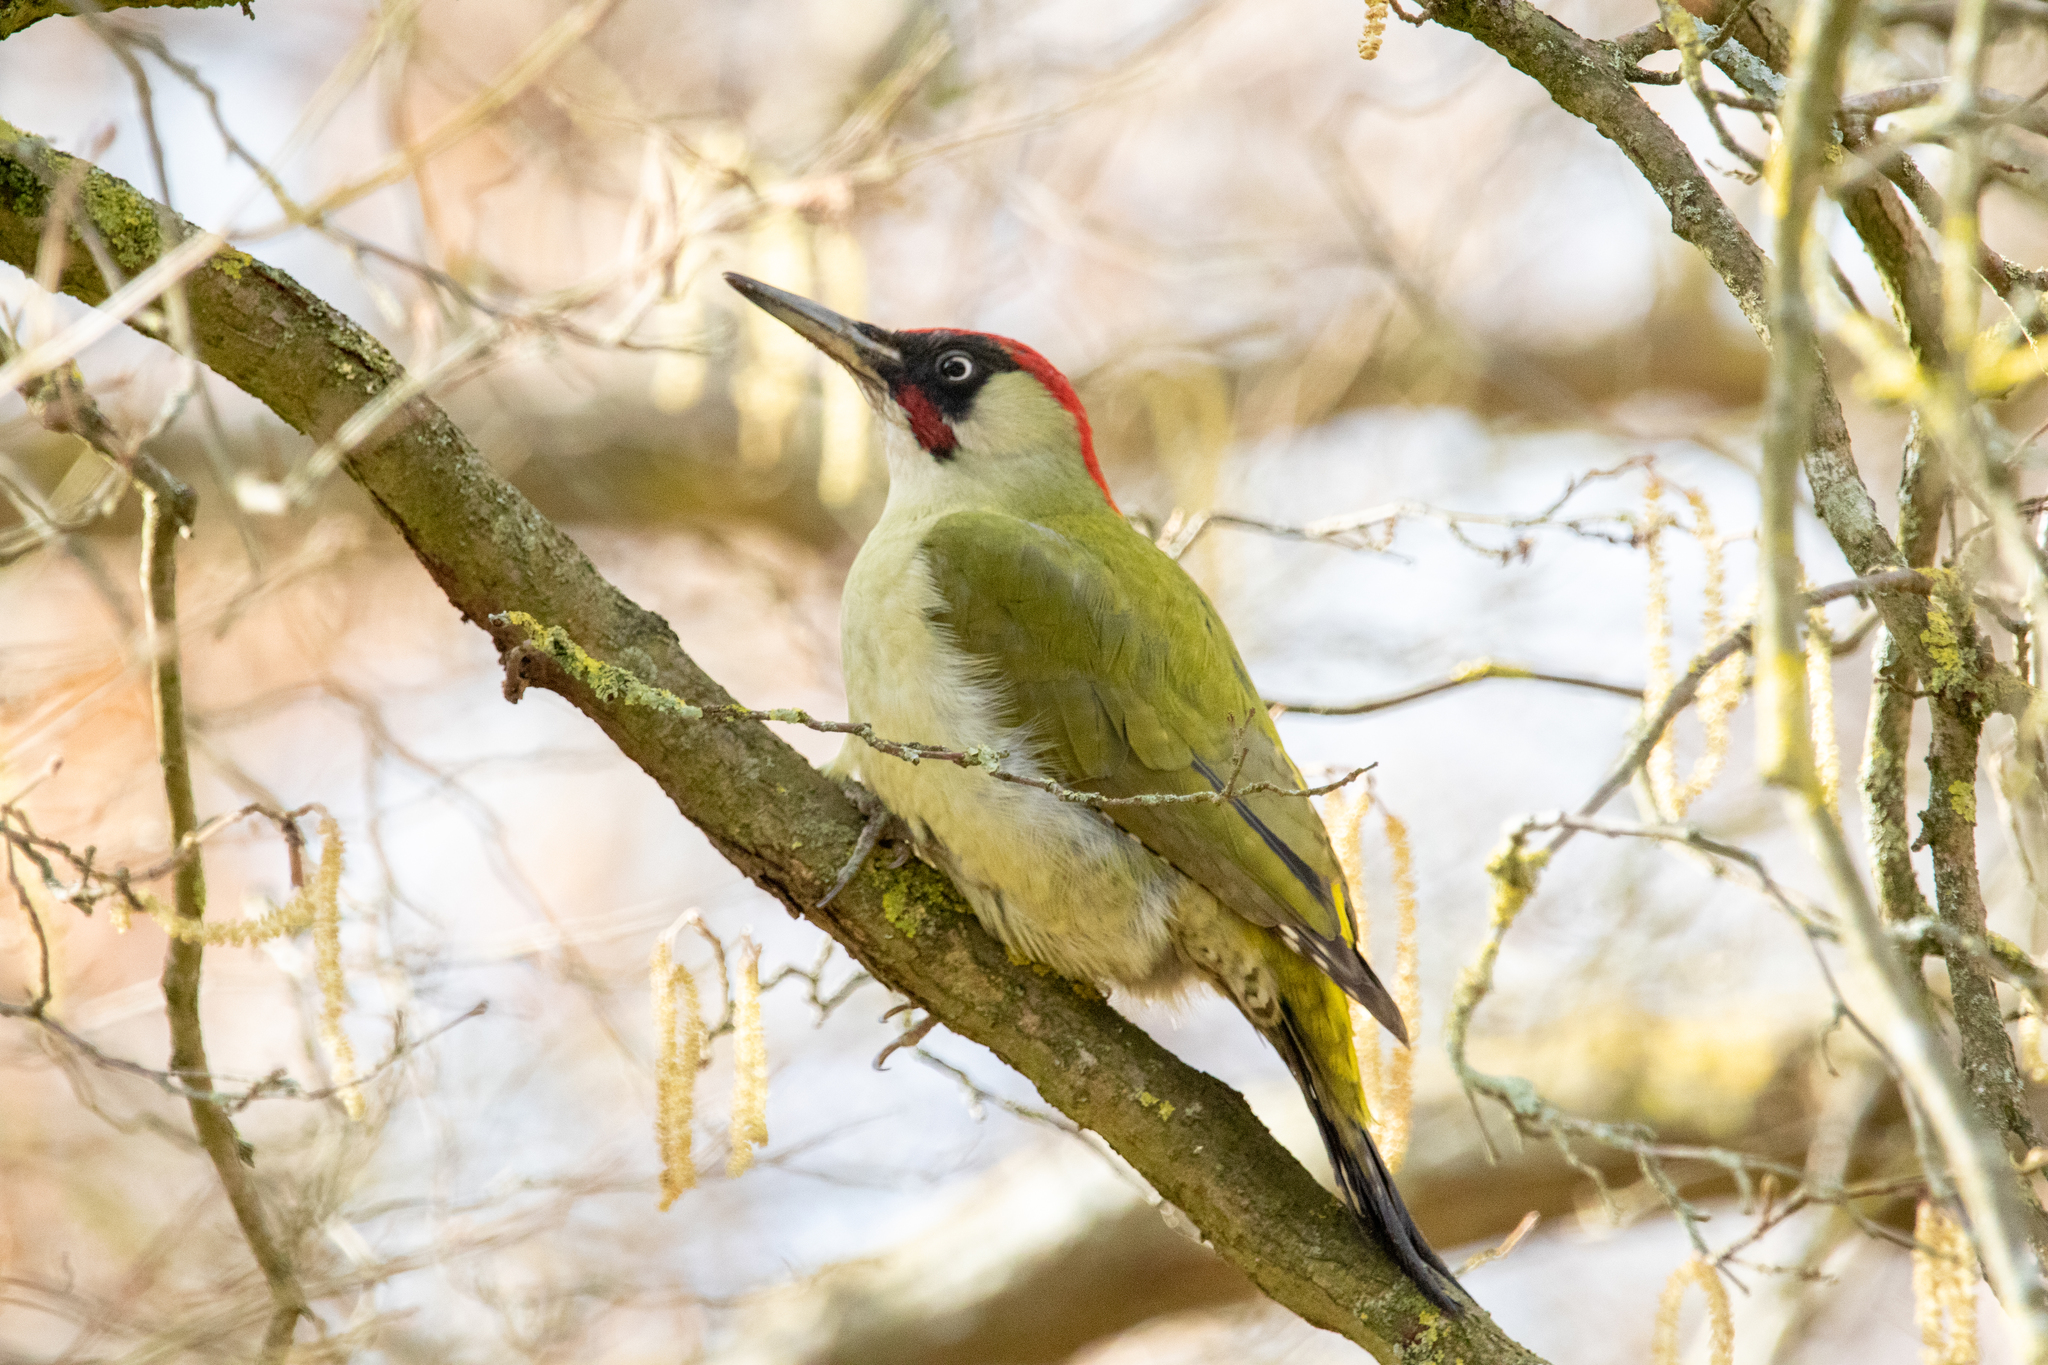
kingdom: Animalia
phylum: Chordata
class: Aves
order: Piciformes
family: Picidae
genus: Picus
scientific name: Picus viridis
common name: European green woodpecker
